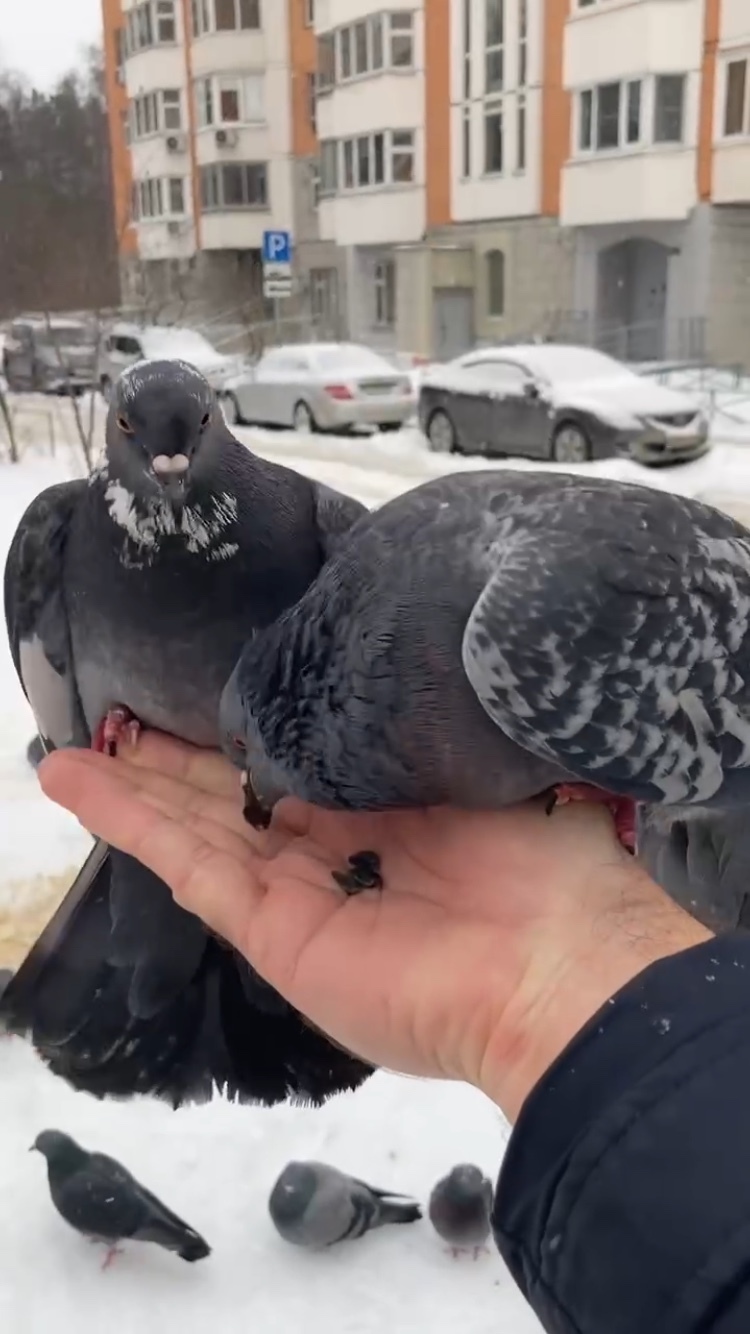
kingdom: Animalia
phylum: Chordata
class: Aves
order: Columbiformes
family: Columbidae
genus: Columba
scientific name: Columba livia
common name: Rock pigeon
